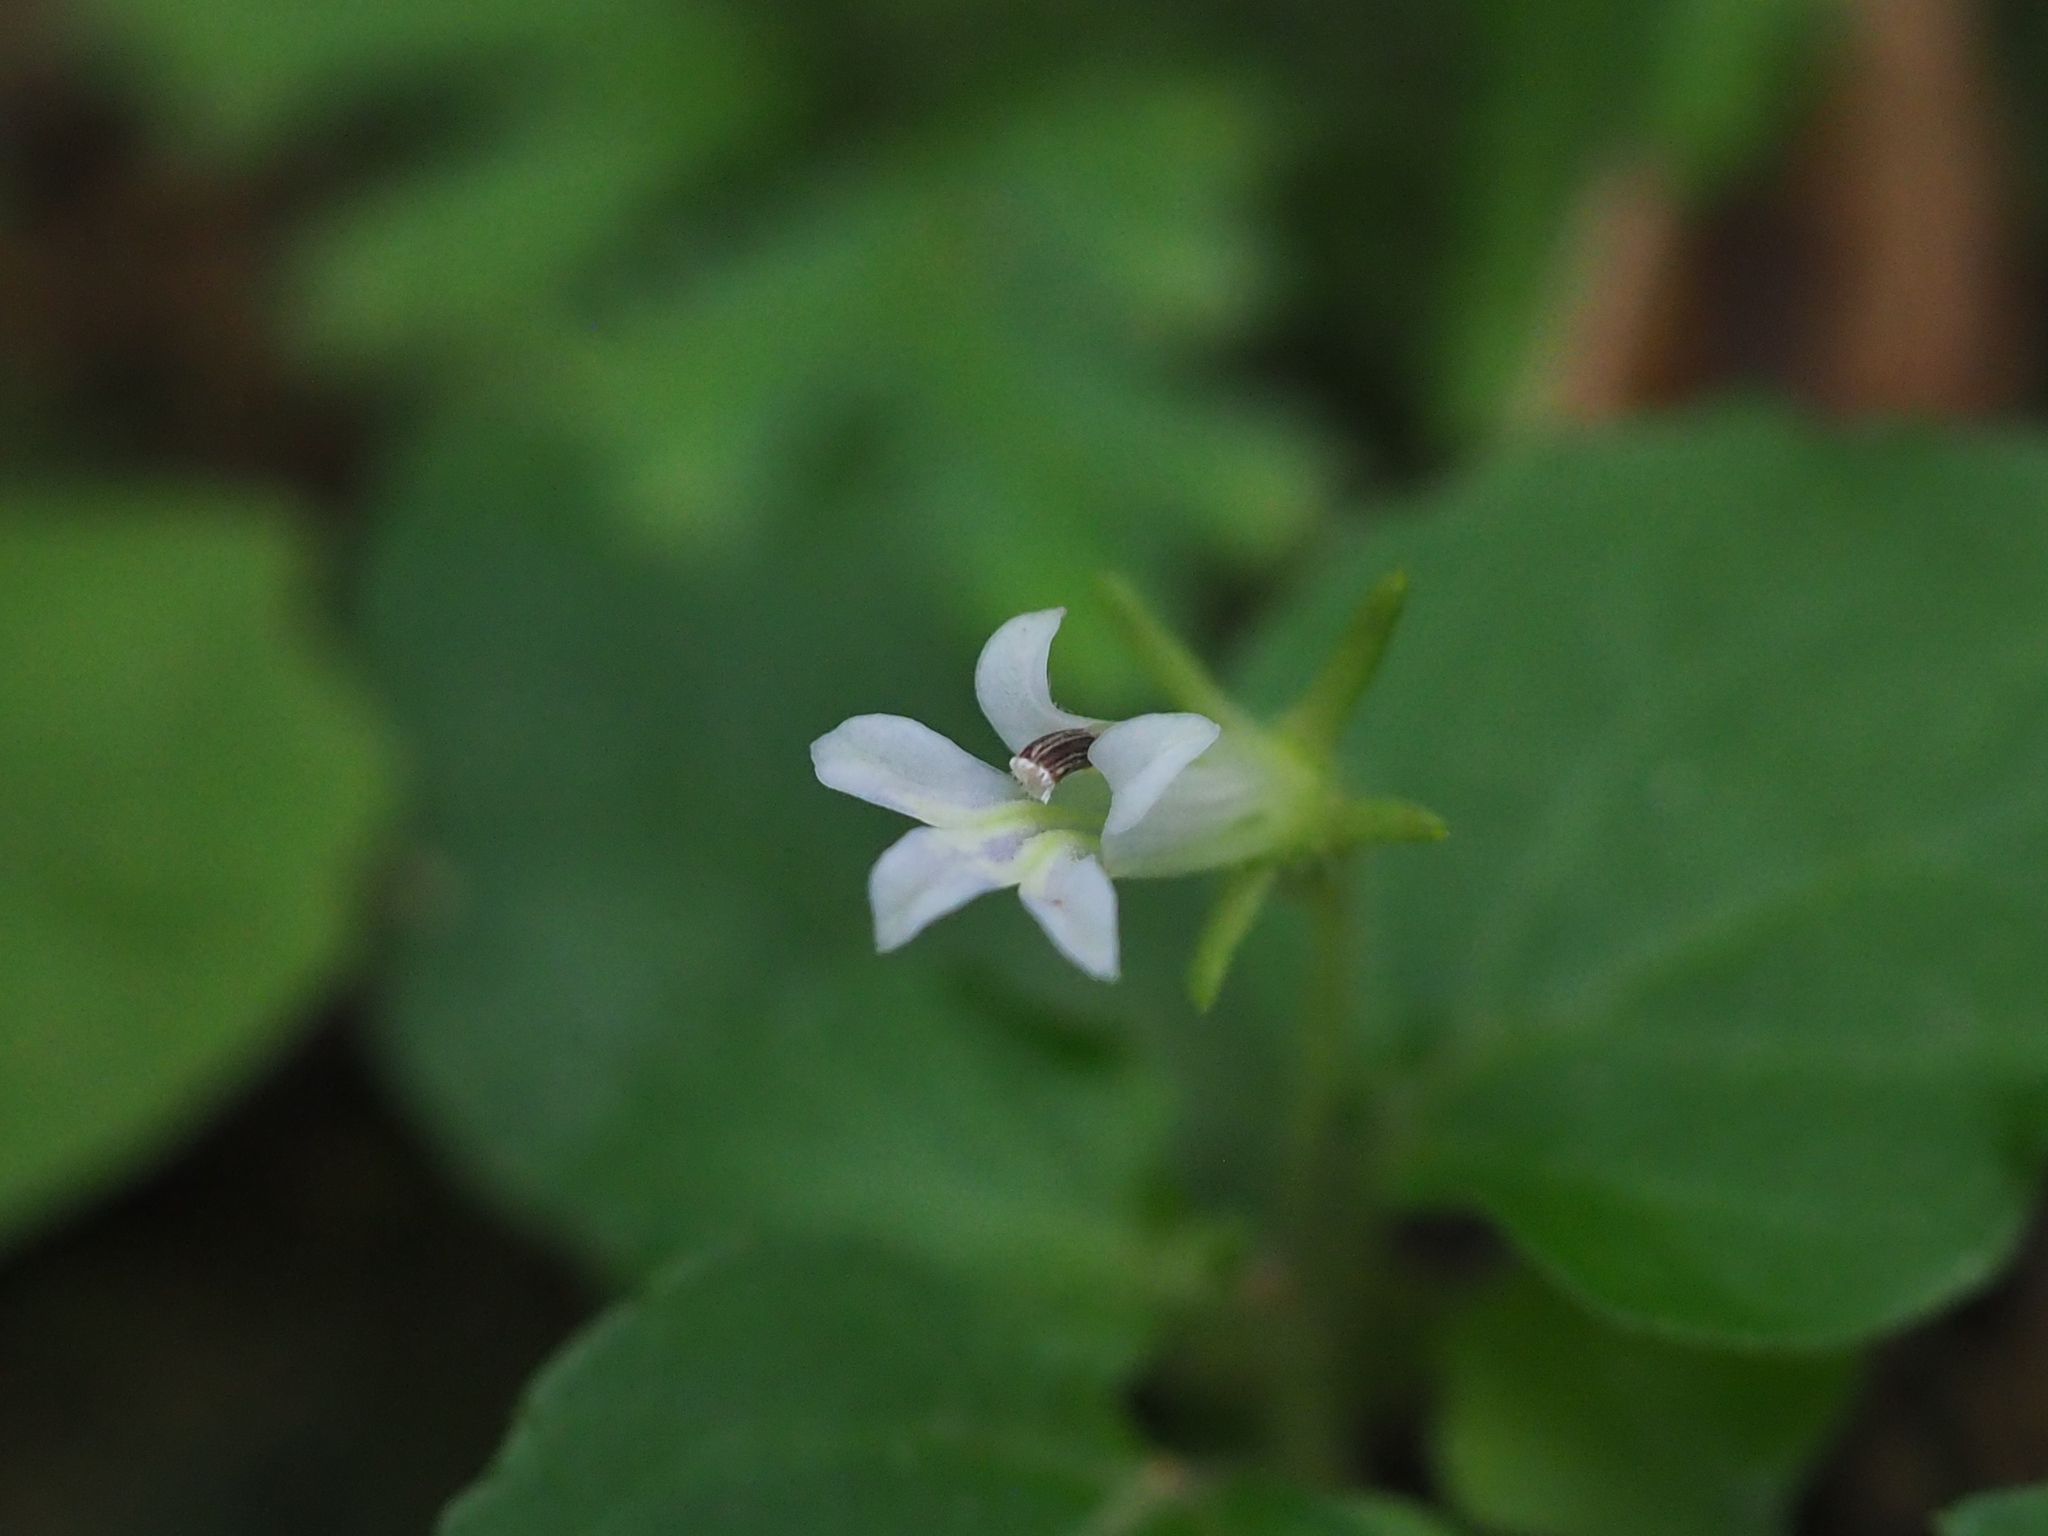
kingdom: Plantae
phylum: Tracheophyta
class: Magnoliopsida
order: Asterales
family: Campanulaceae
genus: Lobelia
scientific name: Lobelia zeylanica
